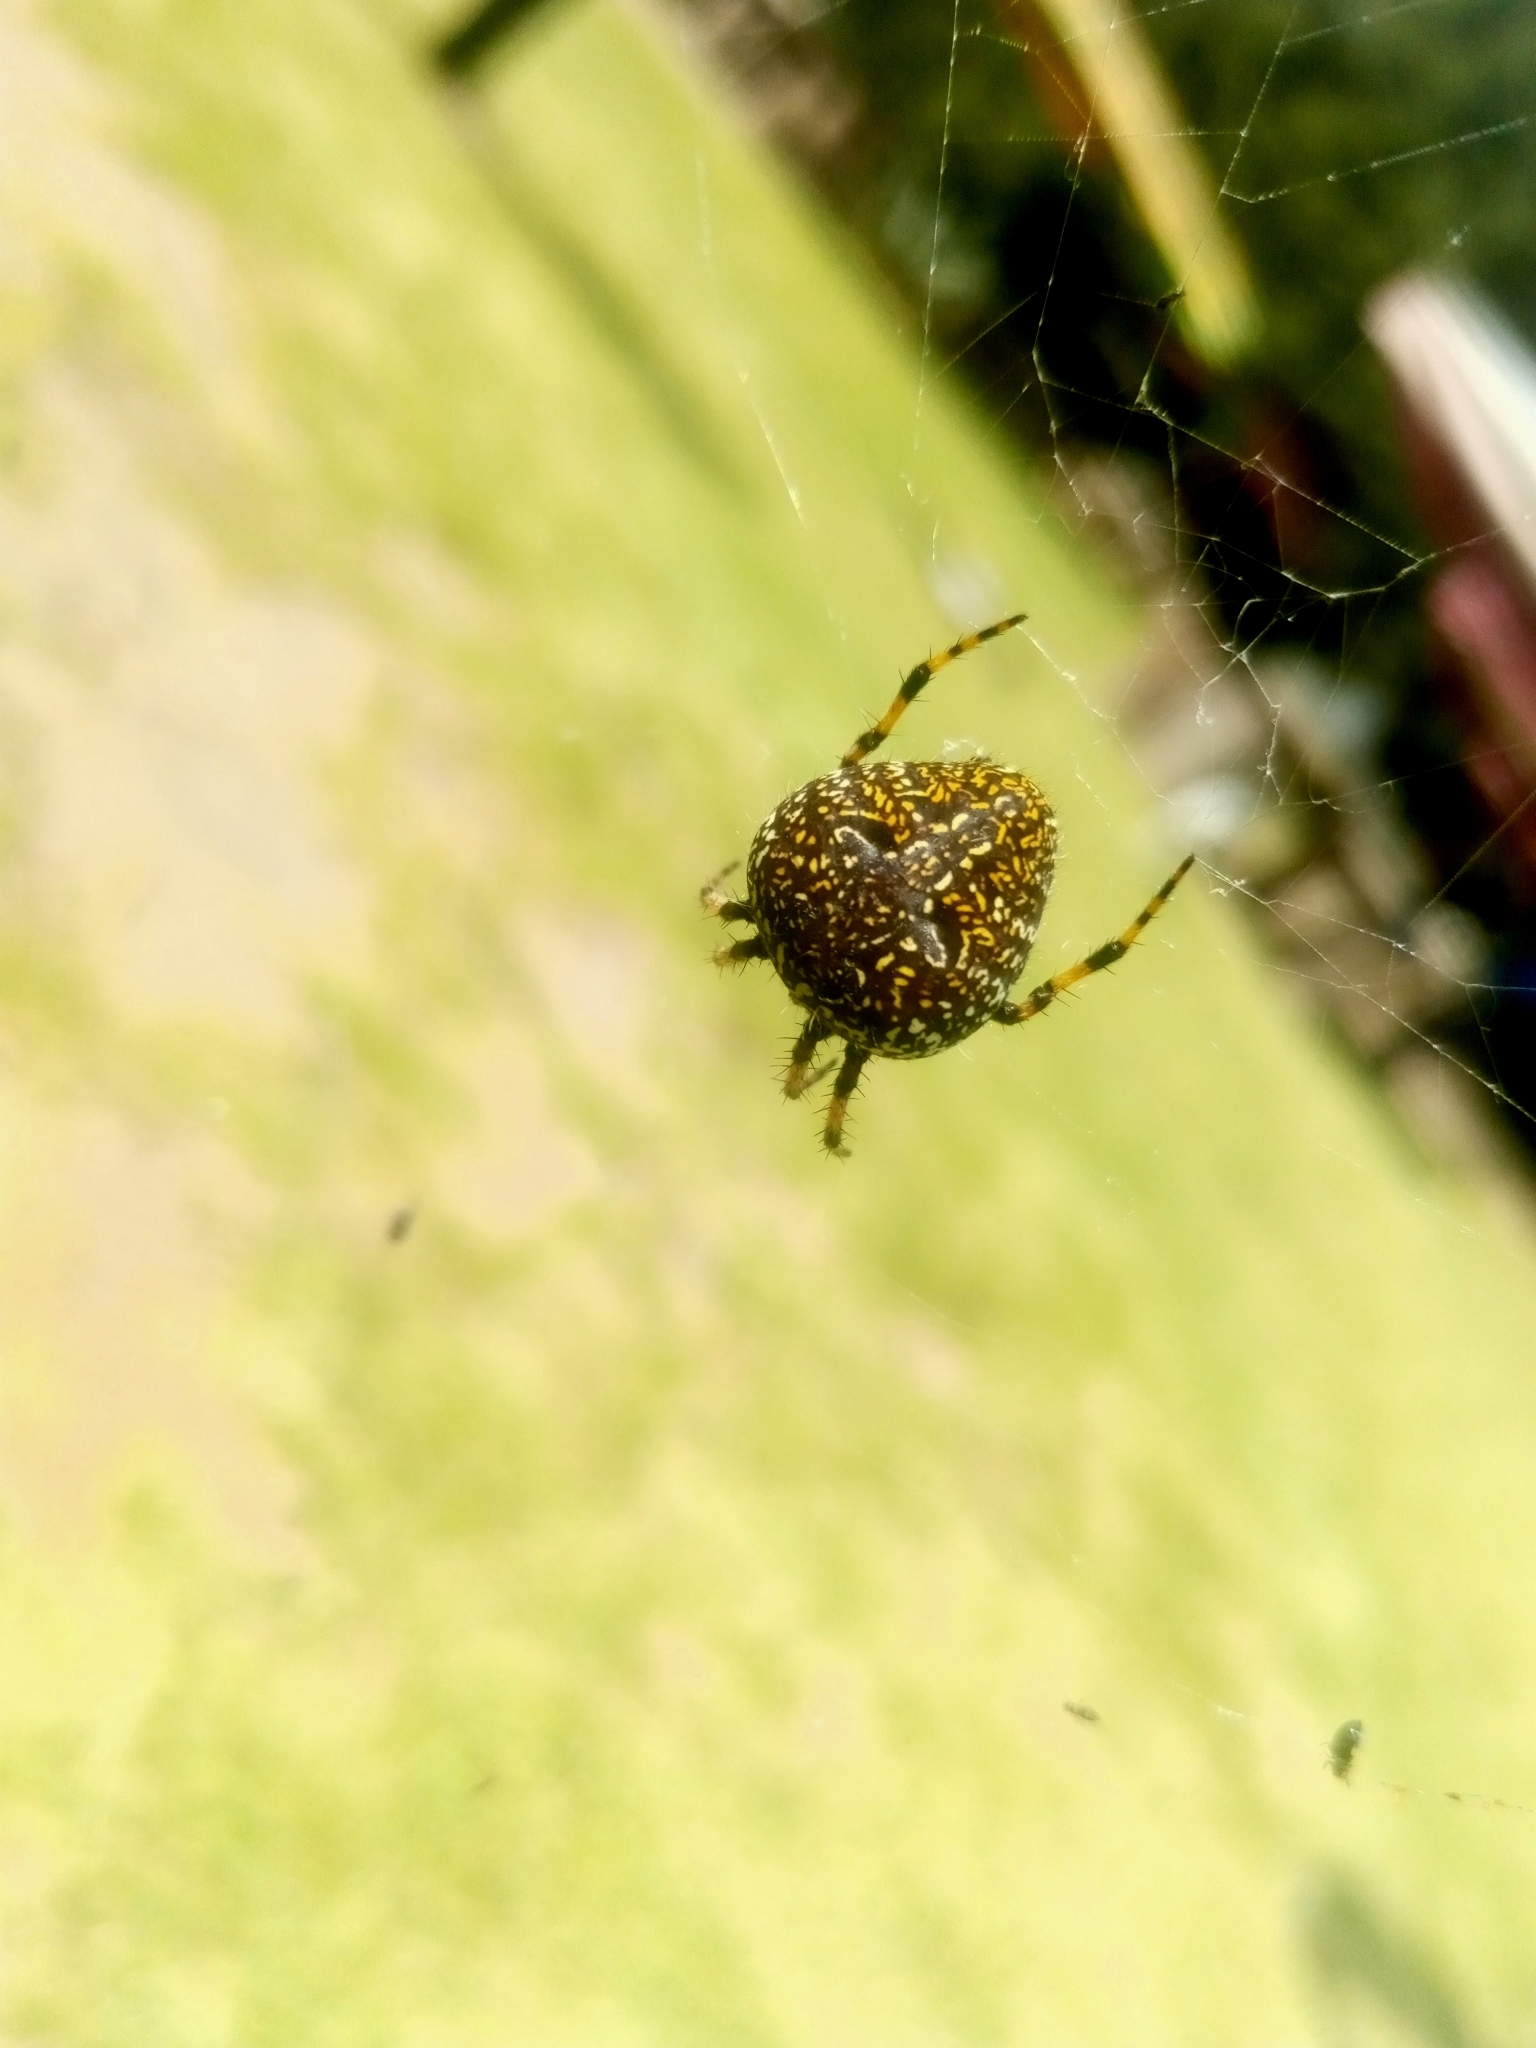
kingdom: Animalia
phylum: Arthropoda
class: Arachnida
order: Araneae
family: Araneidae
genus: Neoscona
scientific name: Neoscona orizabensis
